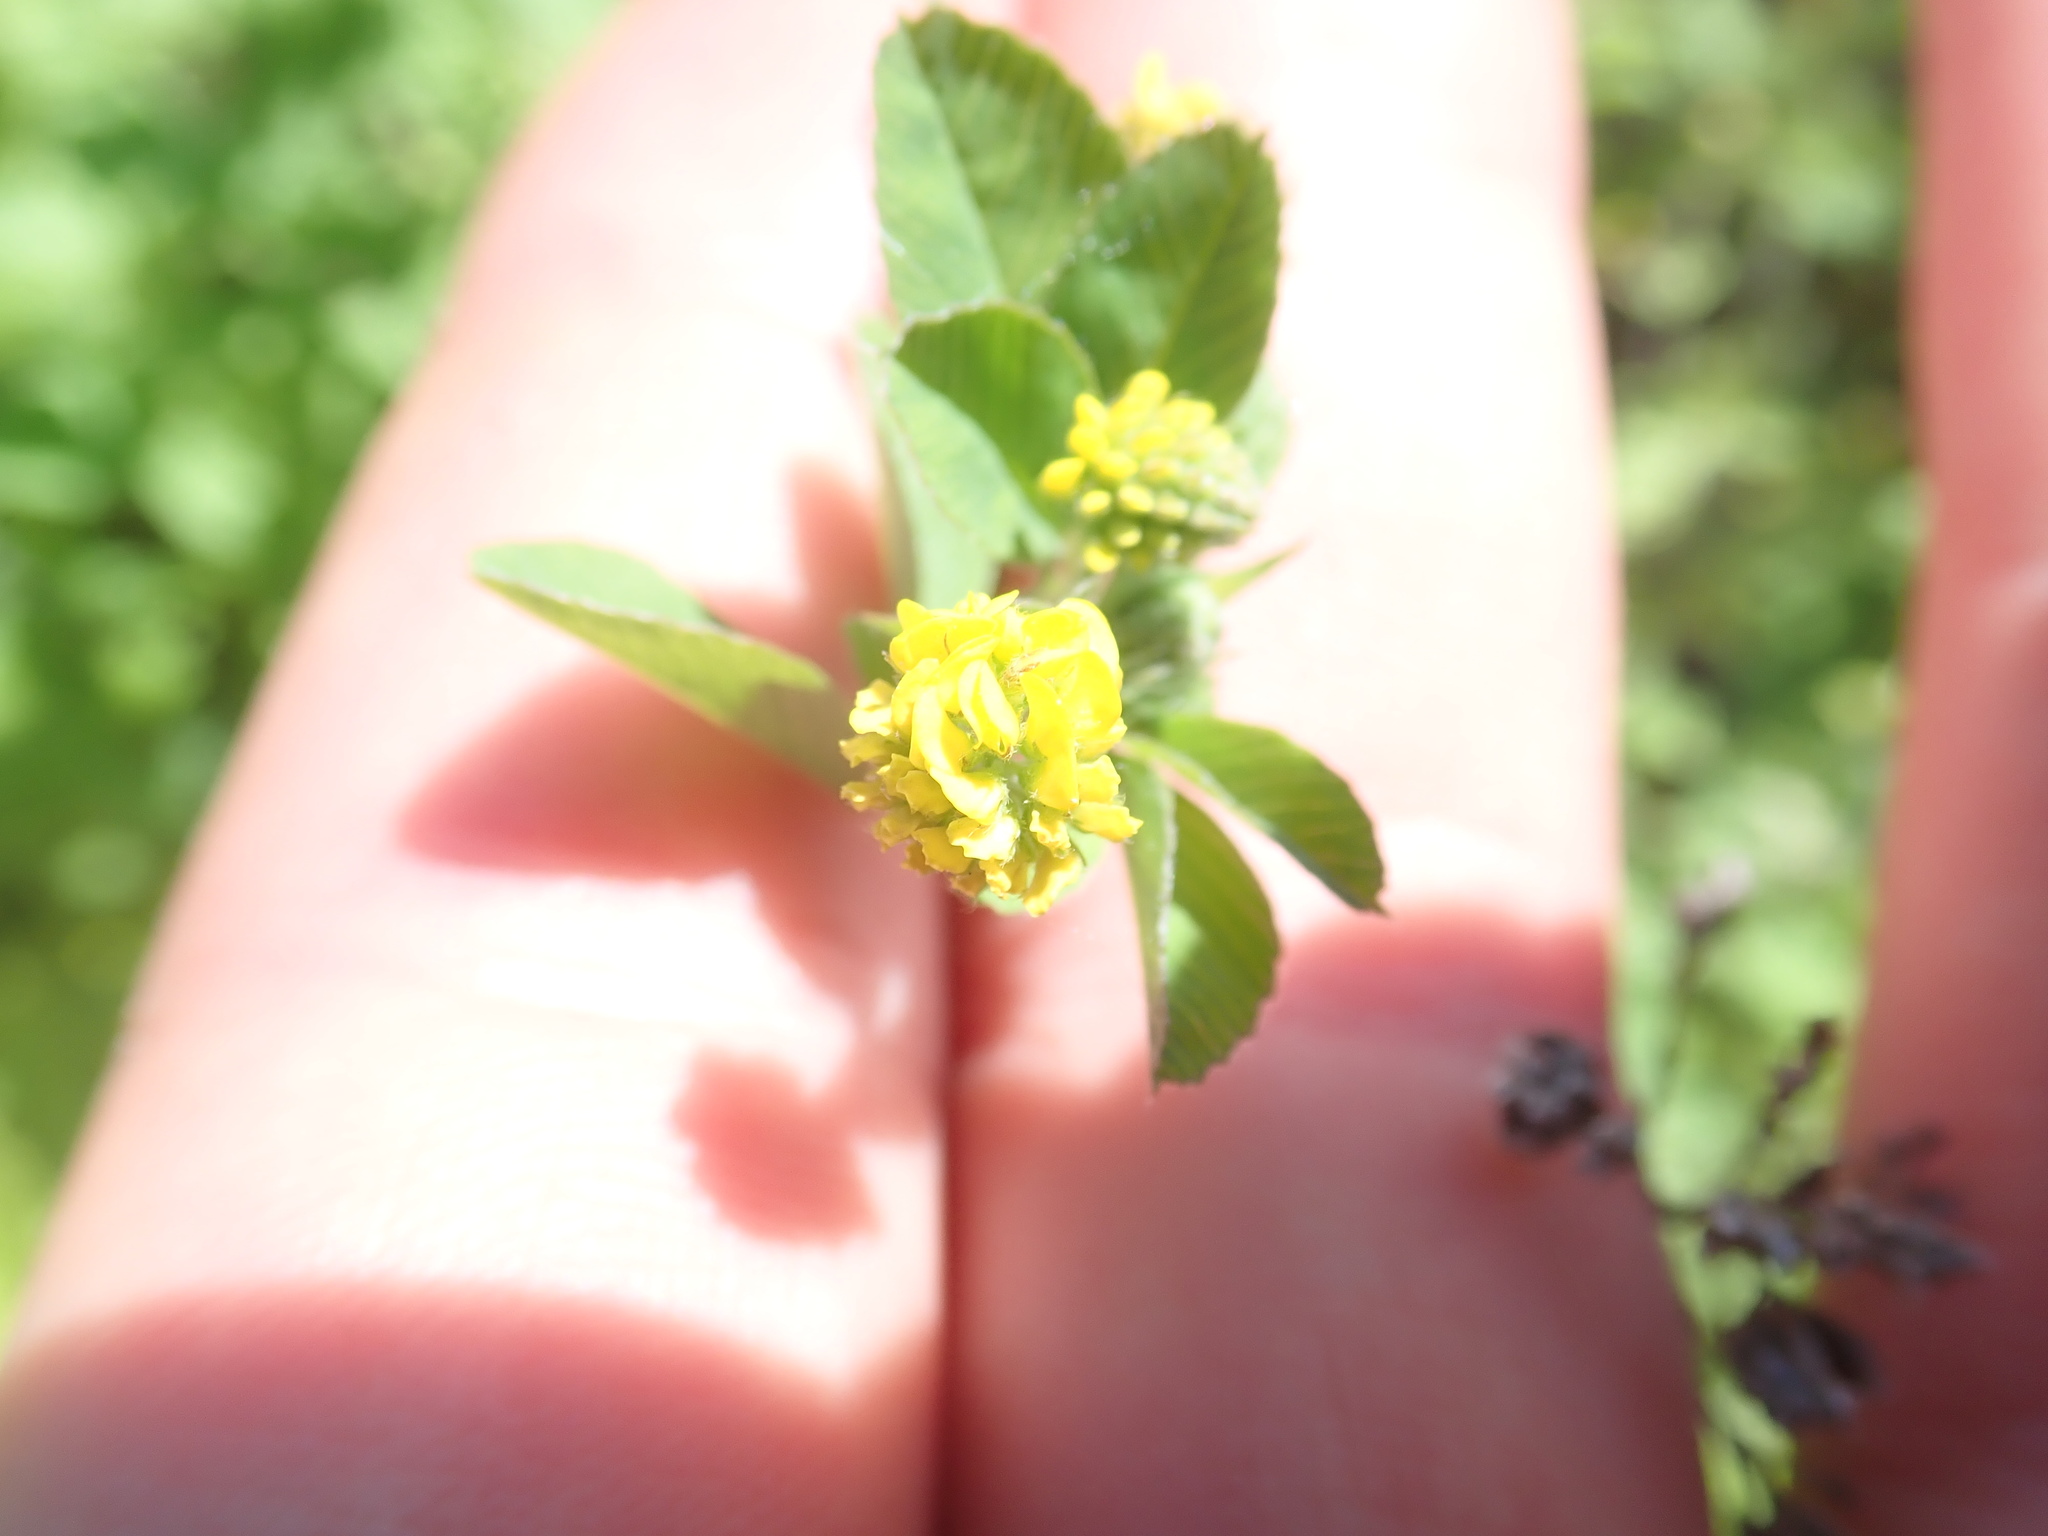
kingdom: Plantae
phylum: Tracheophyta
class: Magnoliopsida
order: Fabales
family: Fabaceae
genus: Medicago
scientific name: Medicago lupulina
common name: Black medick
